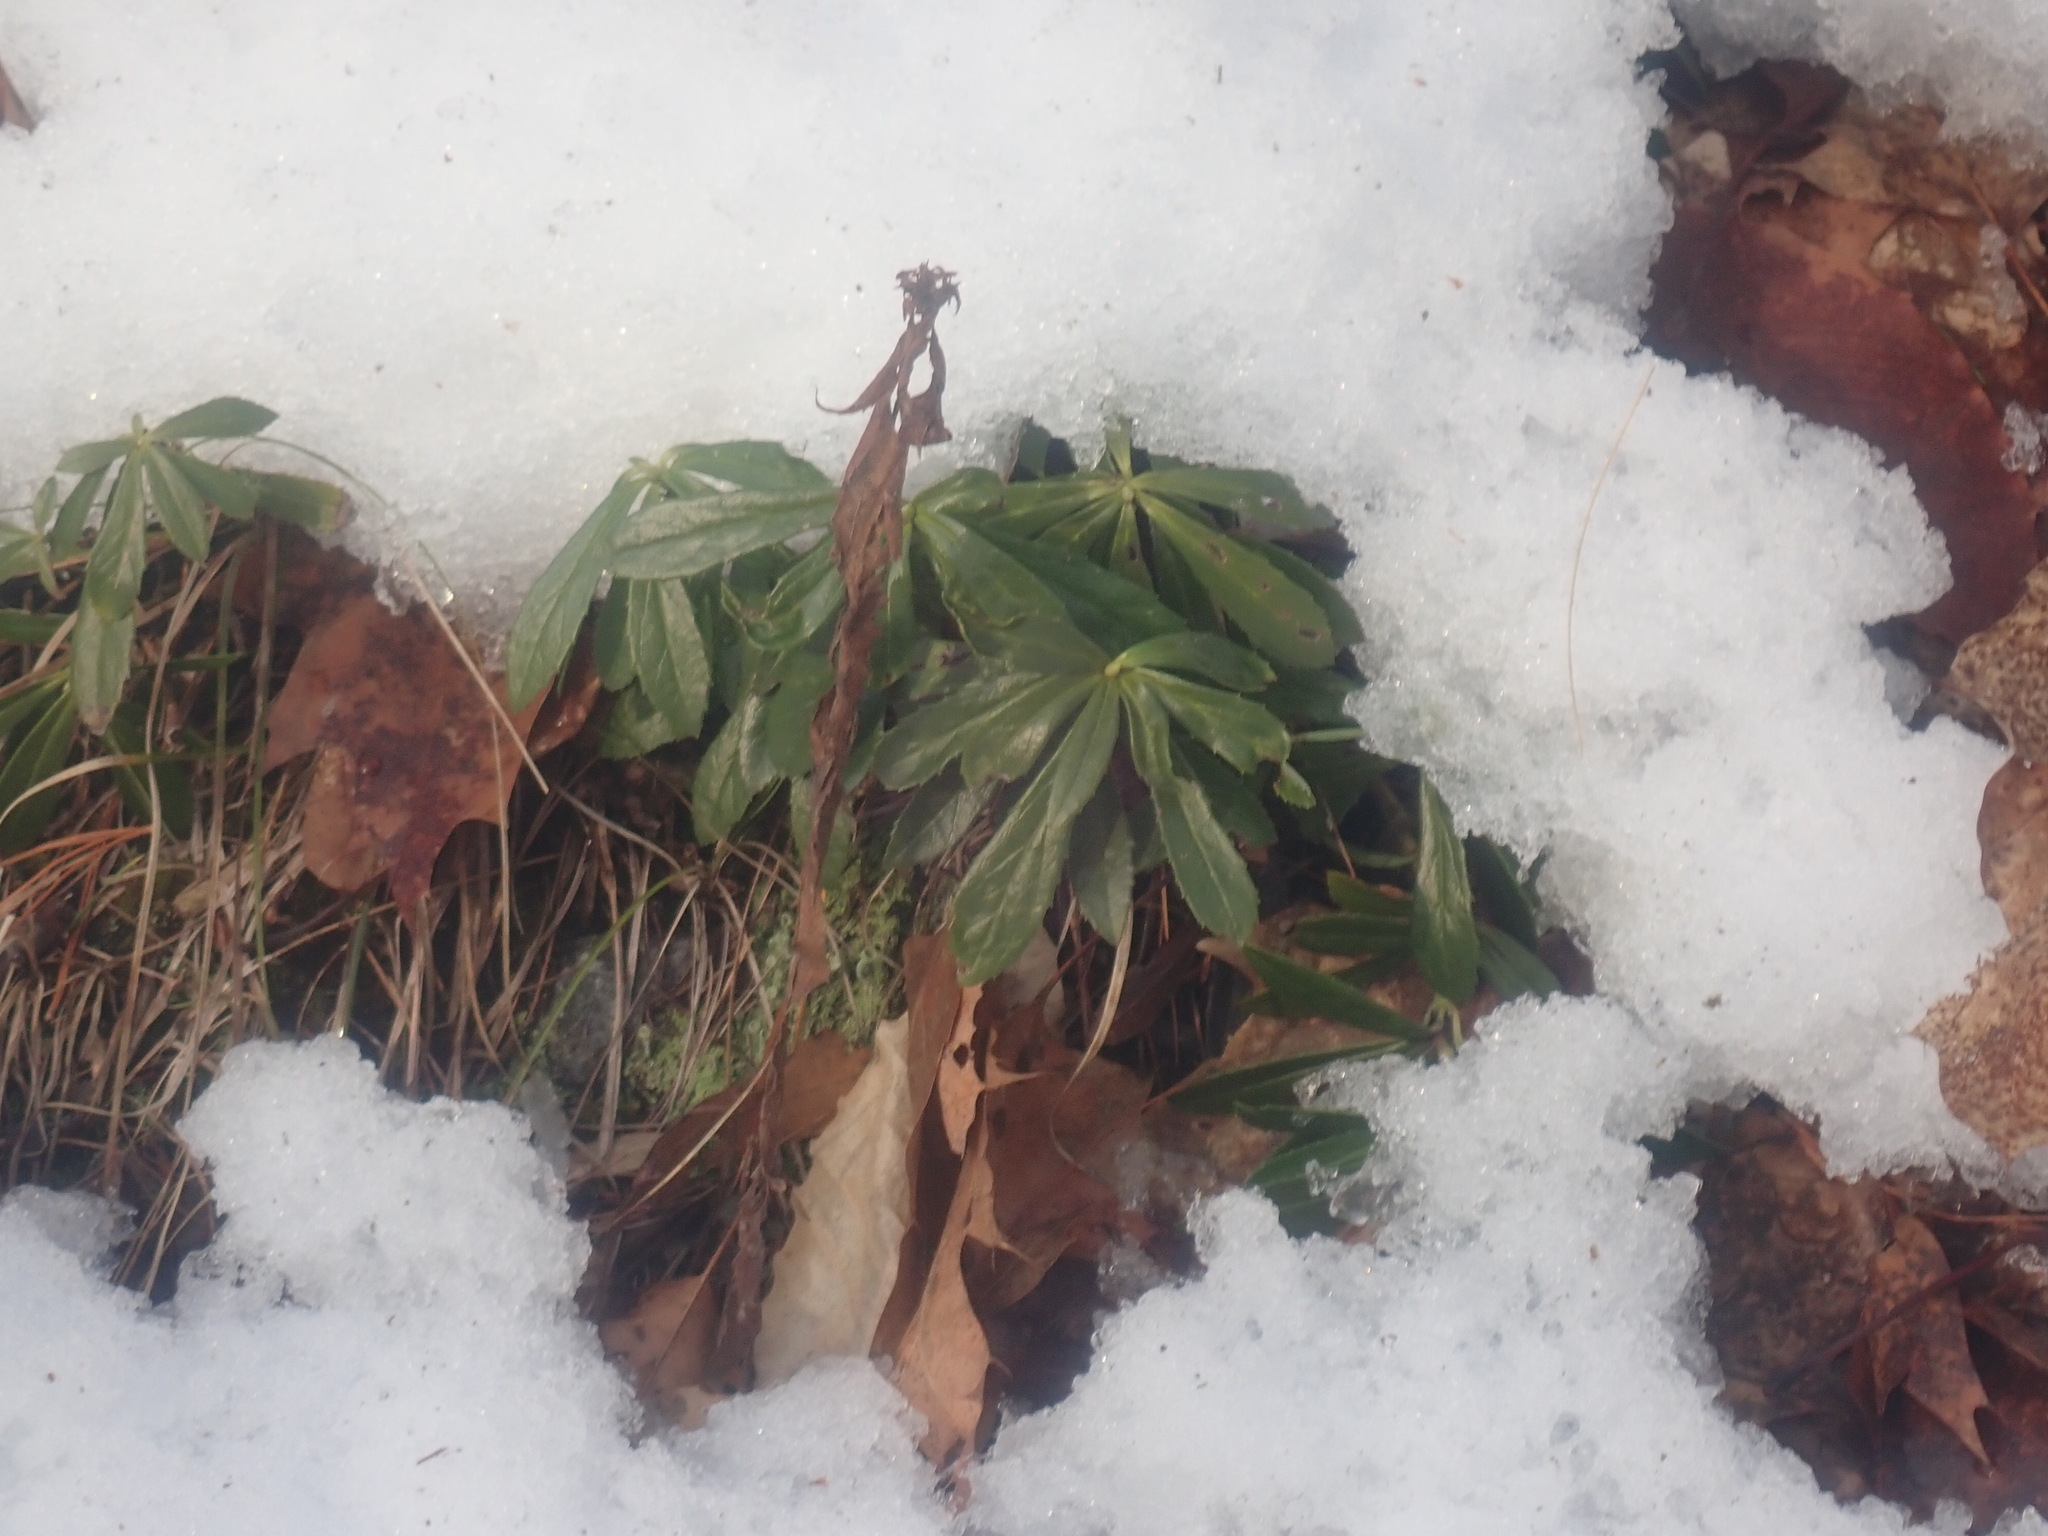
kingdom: Plantae
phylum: Tracheophyta
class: Magnoliopsida
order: Ericales
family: Ericaceae
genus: Chimaphila
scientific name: Chimaphila umbellata
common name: Pipsissewa
